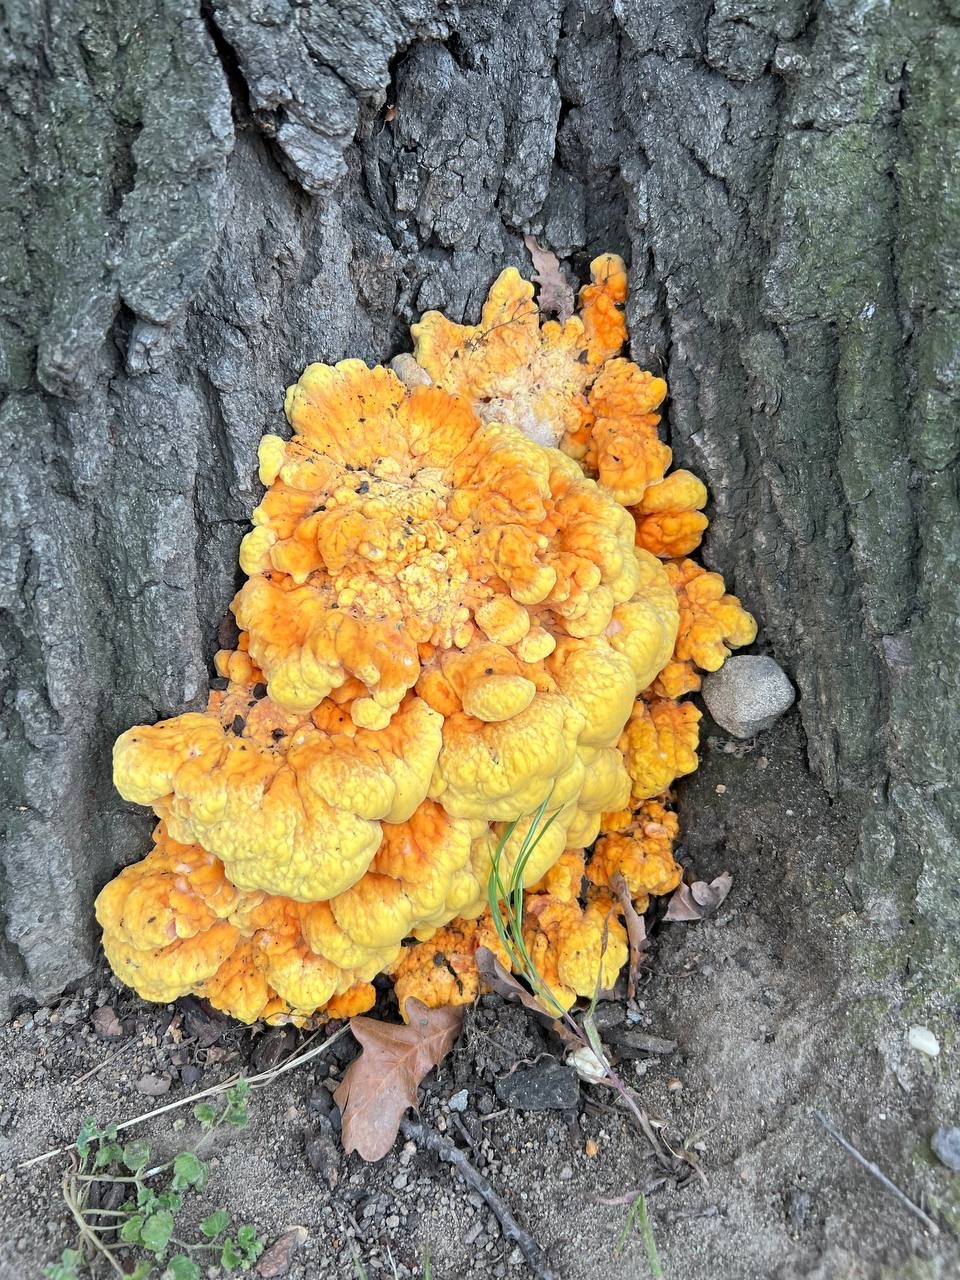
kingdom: Fungi
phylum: Basidiomycota
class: Agaricomycetes
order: Polyporales
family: Laetiporaceae
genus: Laetiporus
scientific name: Laetiporus sulphureus
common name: Chicken of the woods
